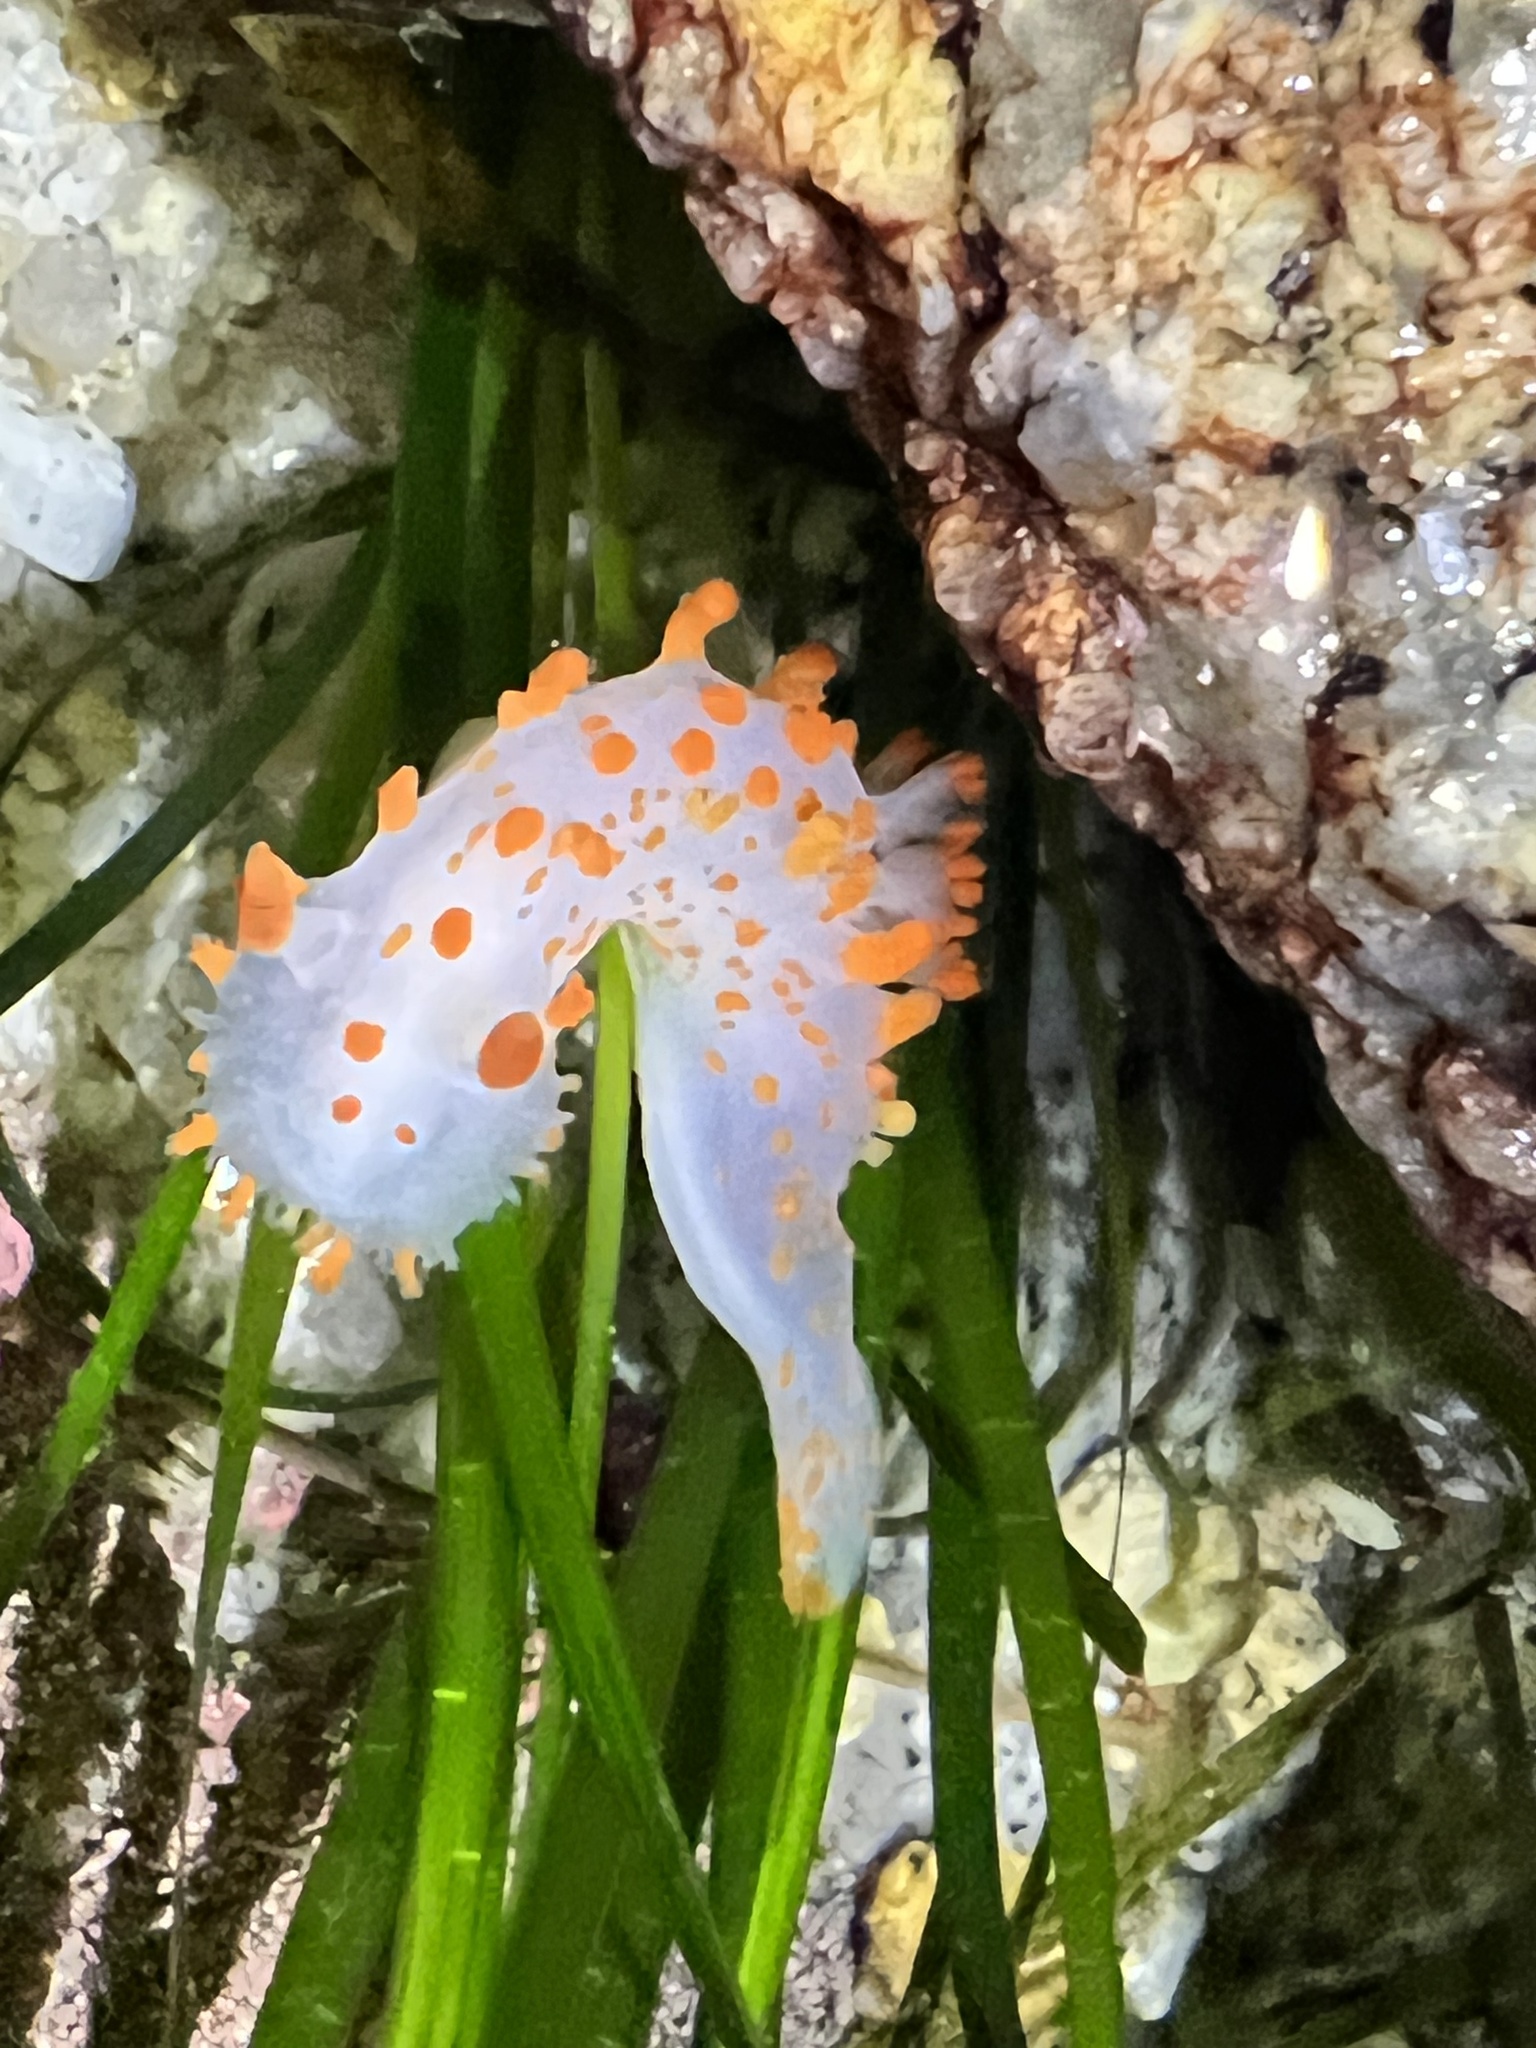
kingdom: Animalia
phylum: Mollusca
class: Gastropoda
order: Nudibranchia
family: Polyceridae
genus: Triopha
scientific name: Triopha catalinae
